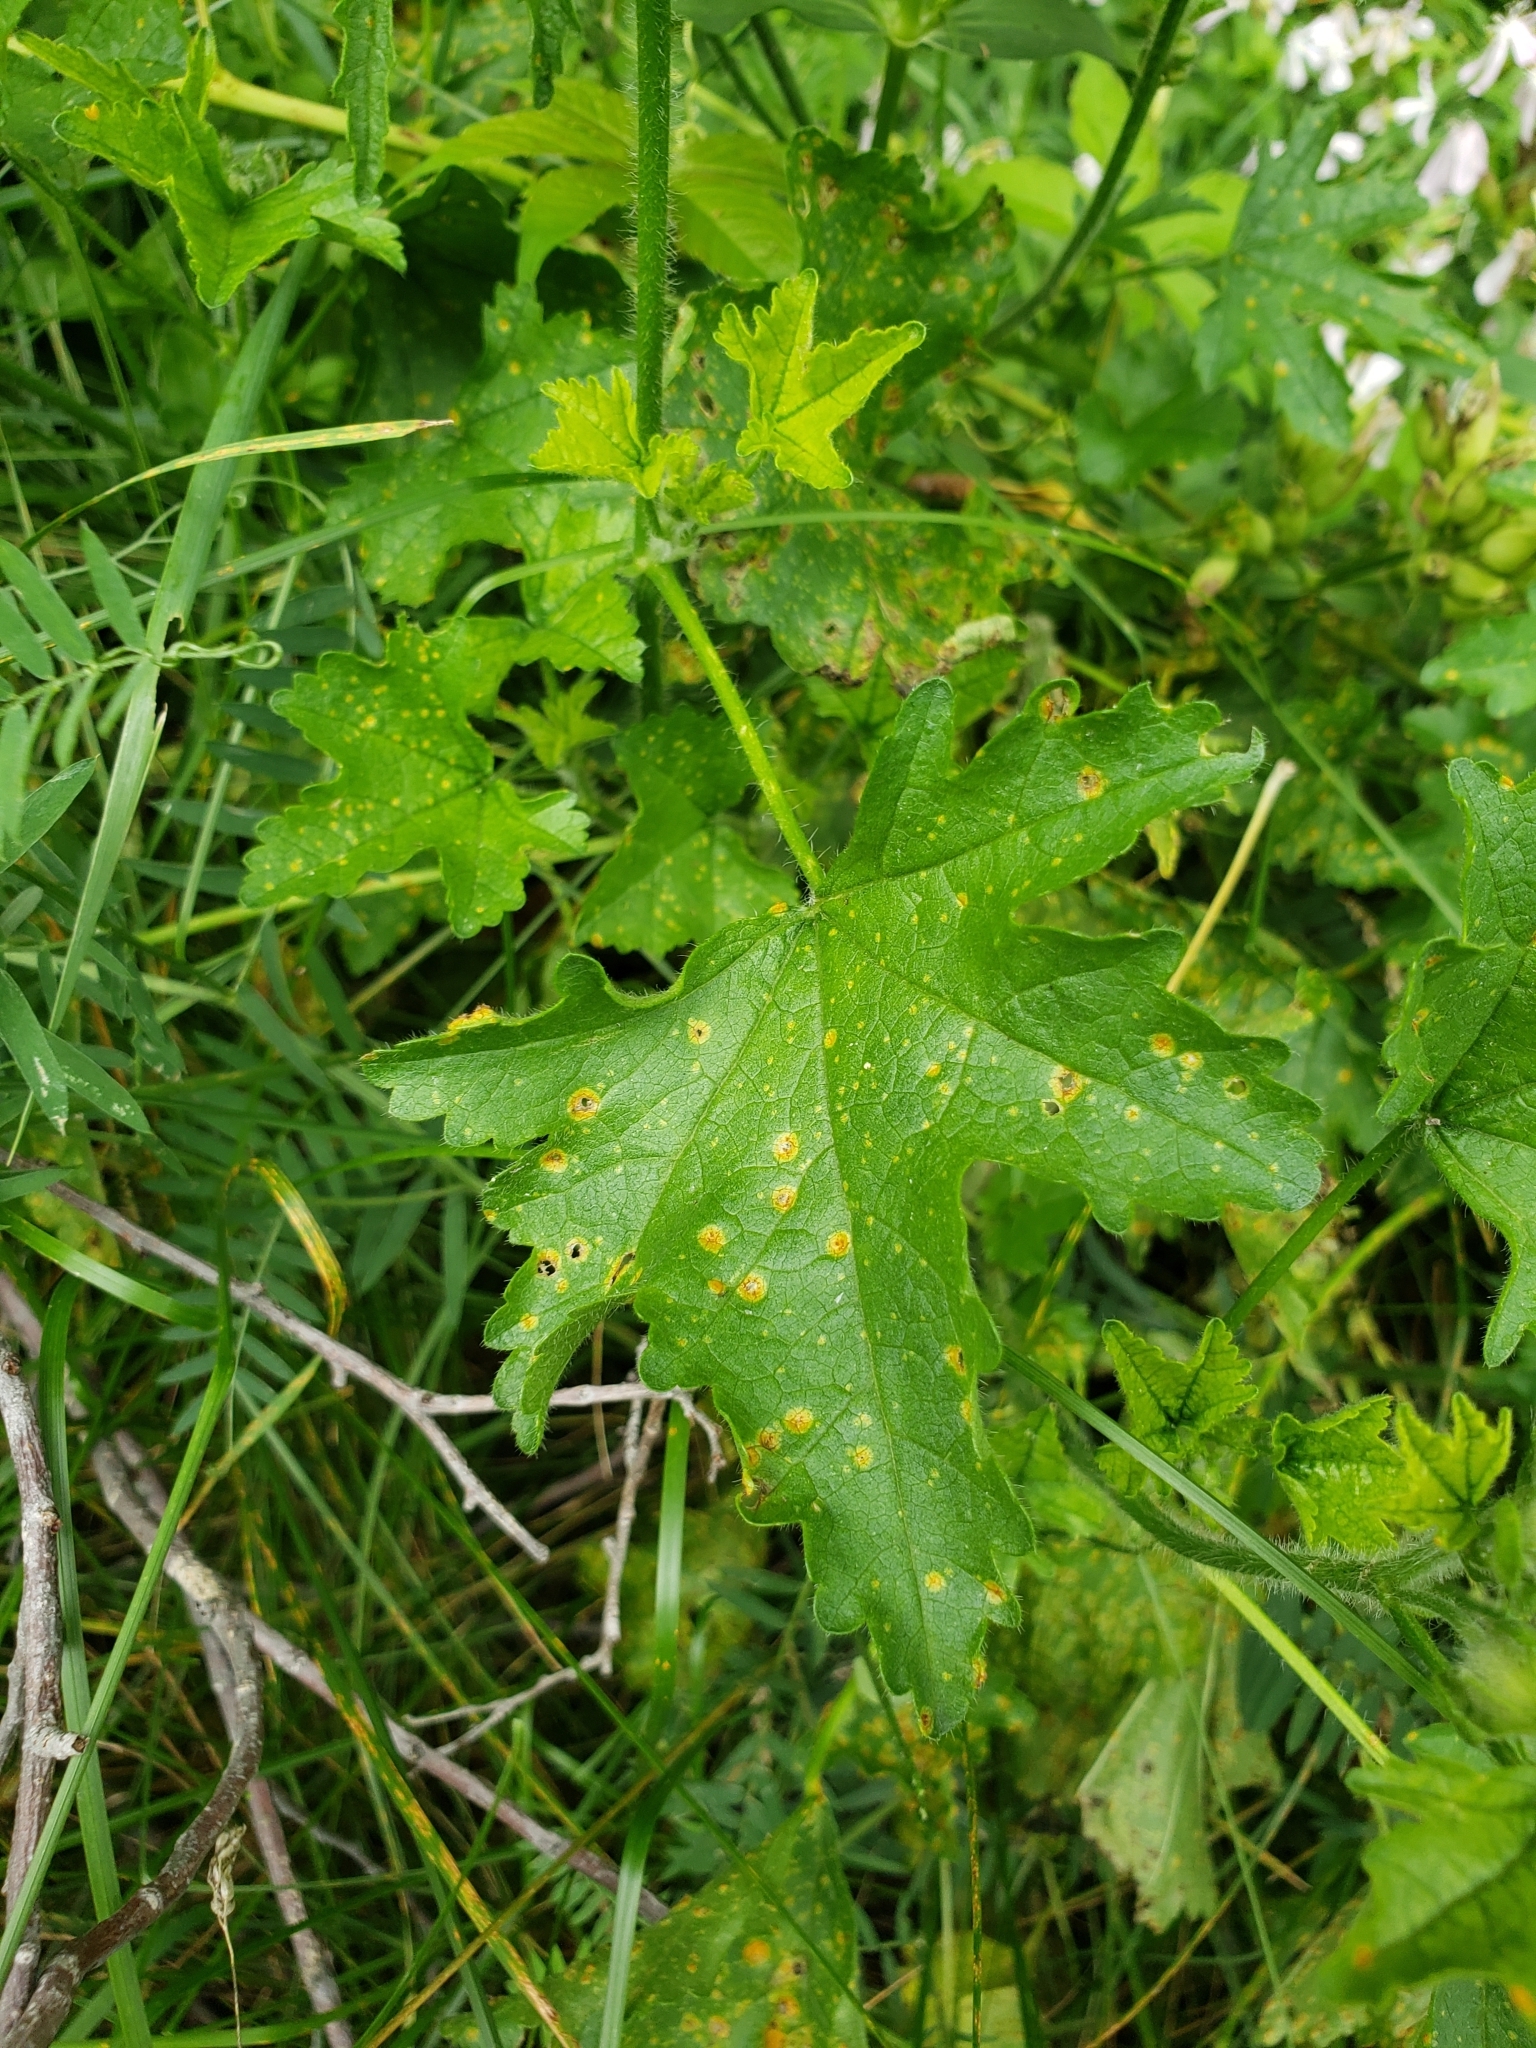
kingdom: Plantae
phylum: Tracheophyta
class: Magnoliopsida
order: Malvales
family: Malvaceae
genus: Malva
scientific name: Malva moschata
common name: Musk mallow
